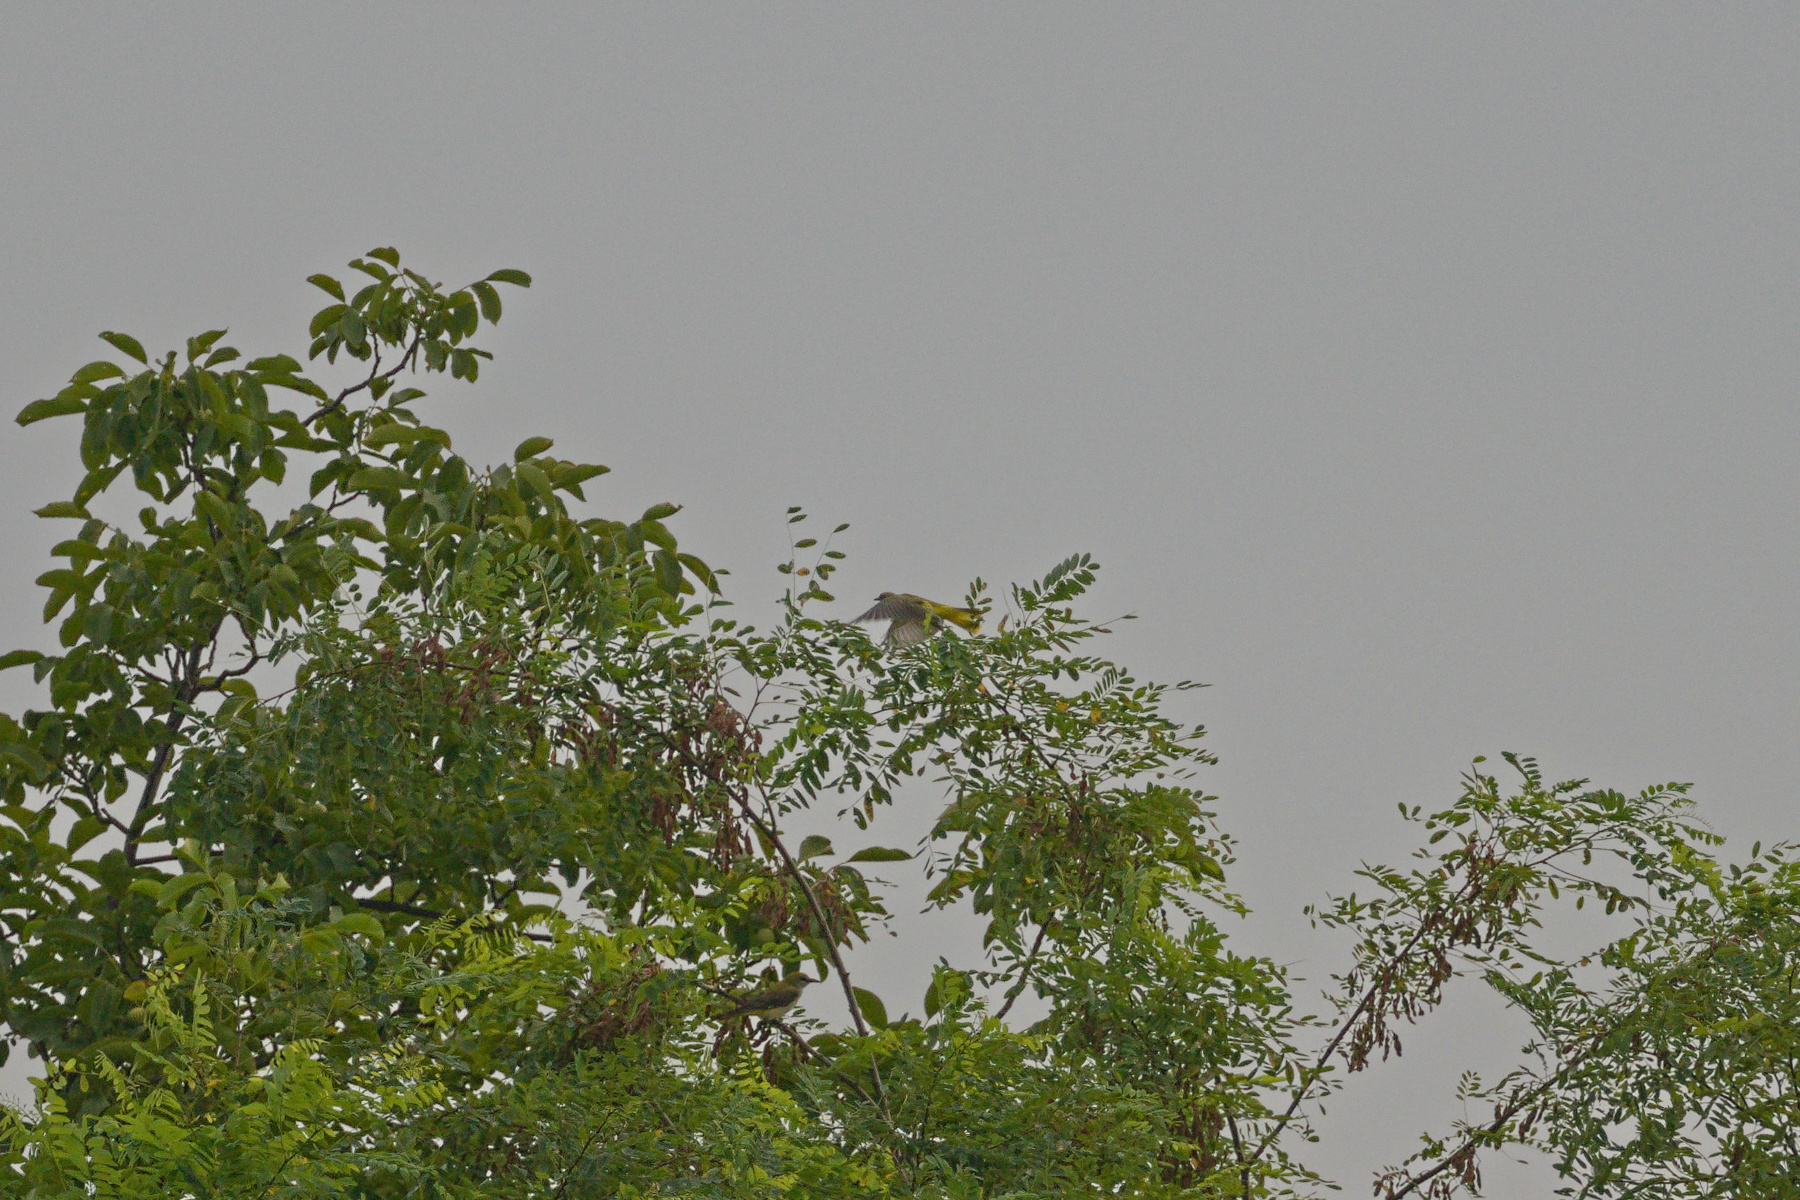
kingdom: Animalia
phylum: Chordata
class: Aves
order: Passeriformes
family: Oriolidae
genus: Oriolus
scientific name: Oriolus oriolus
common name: Eurasian golden oriole
